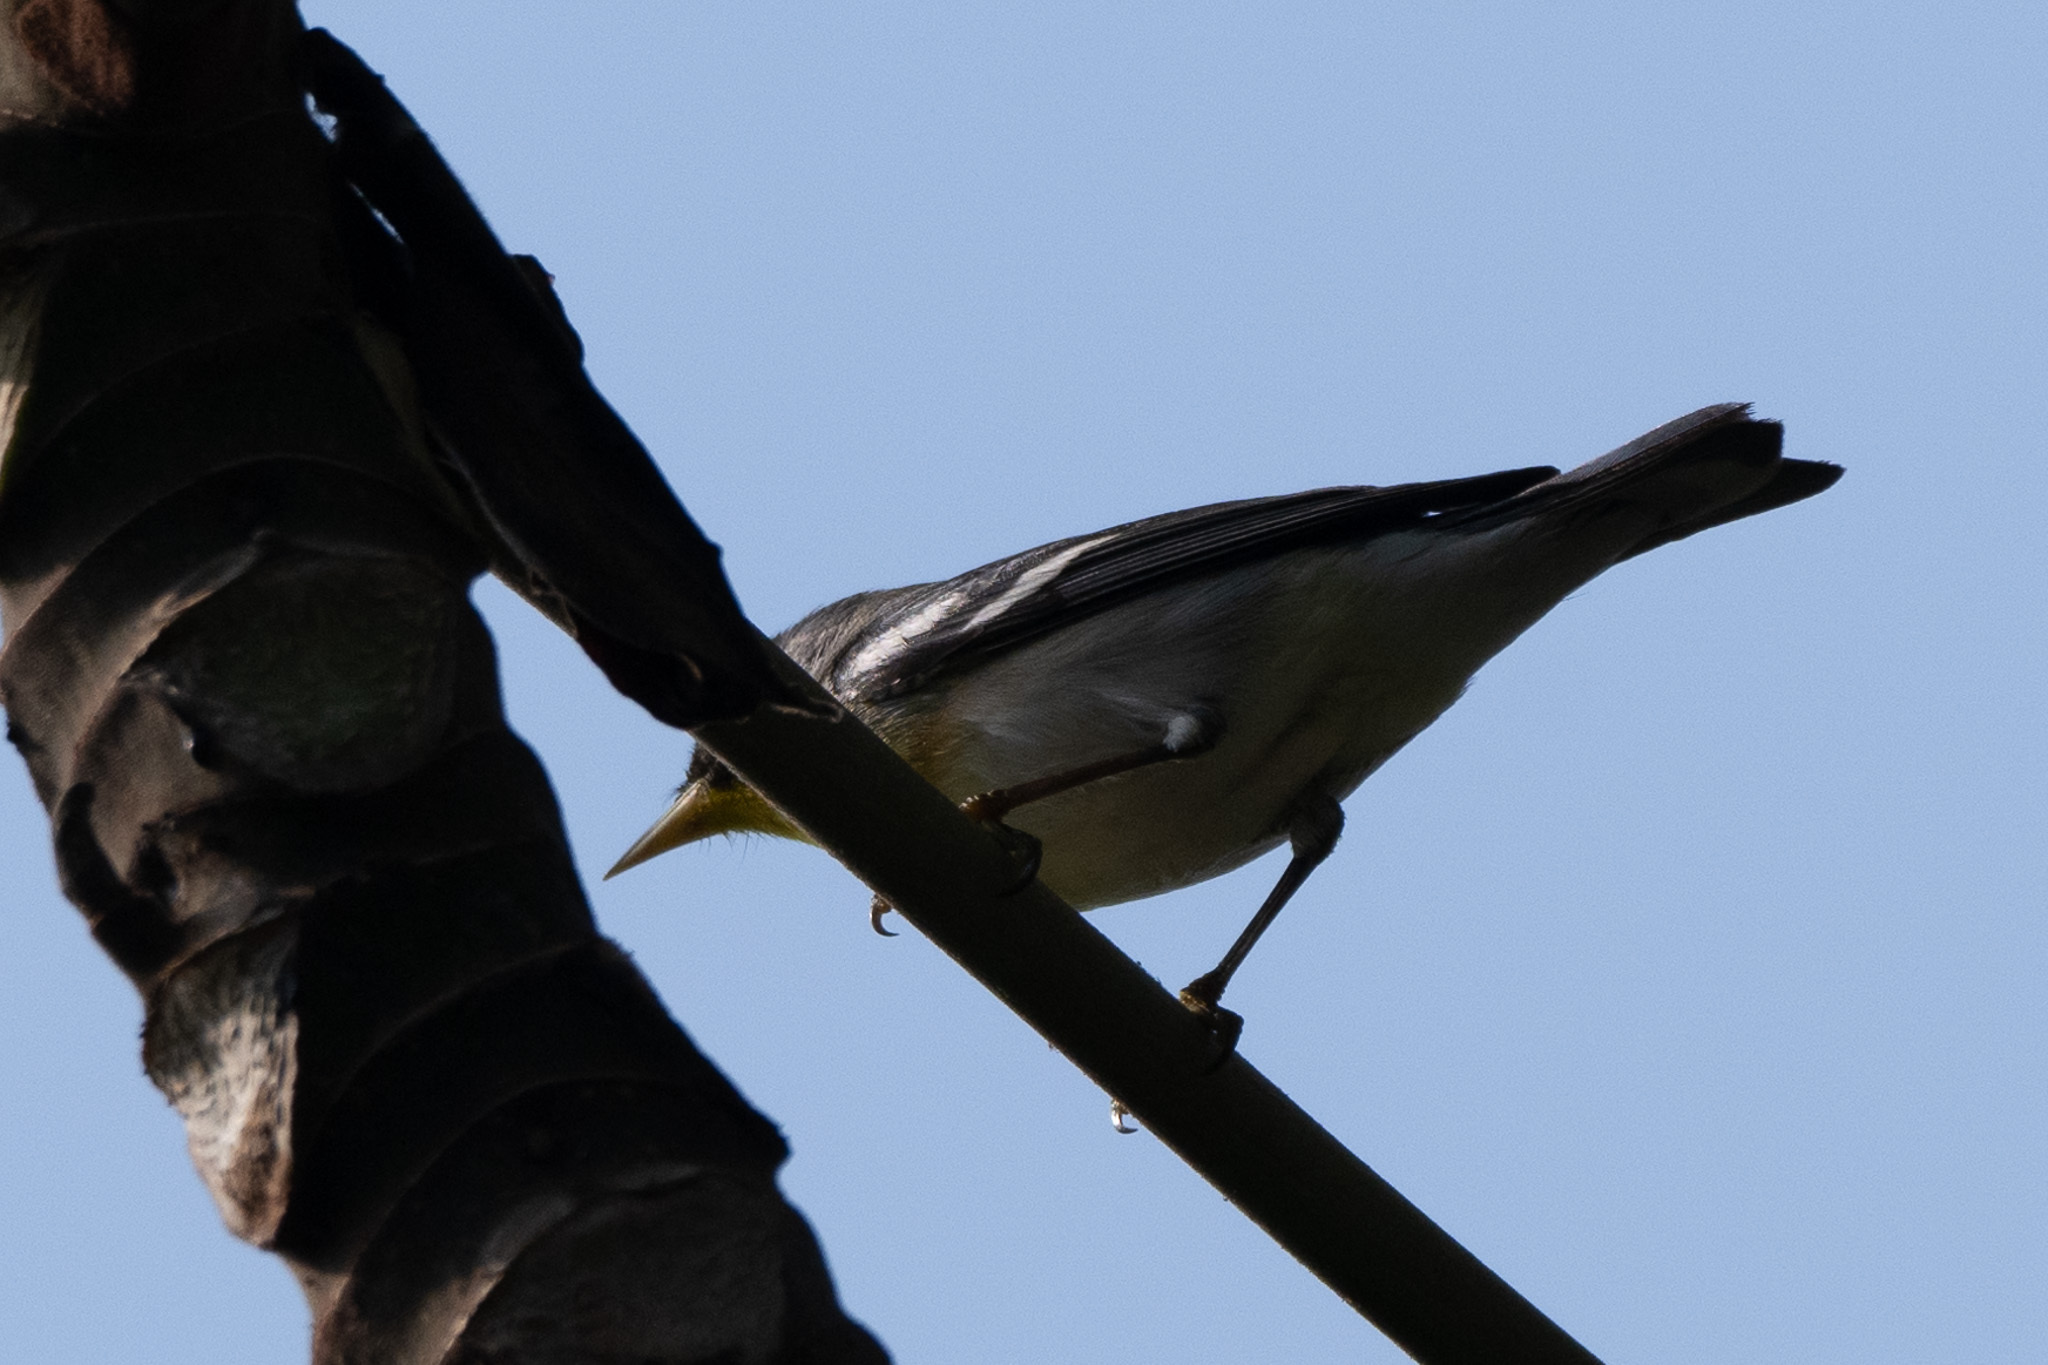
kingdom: Animalia
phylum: Chordata
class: Aves
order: Passeriformes
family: Parulidae
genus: Setophaga
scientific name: Setophaga americana
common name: Northern parula
